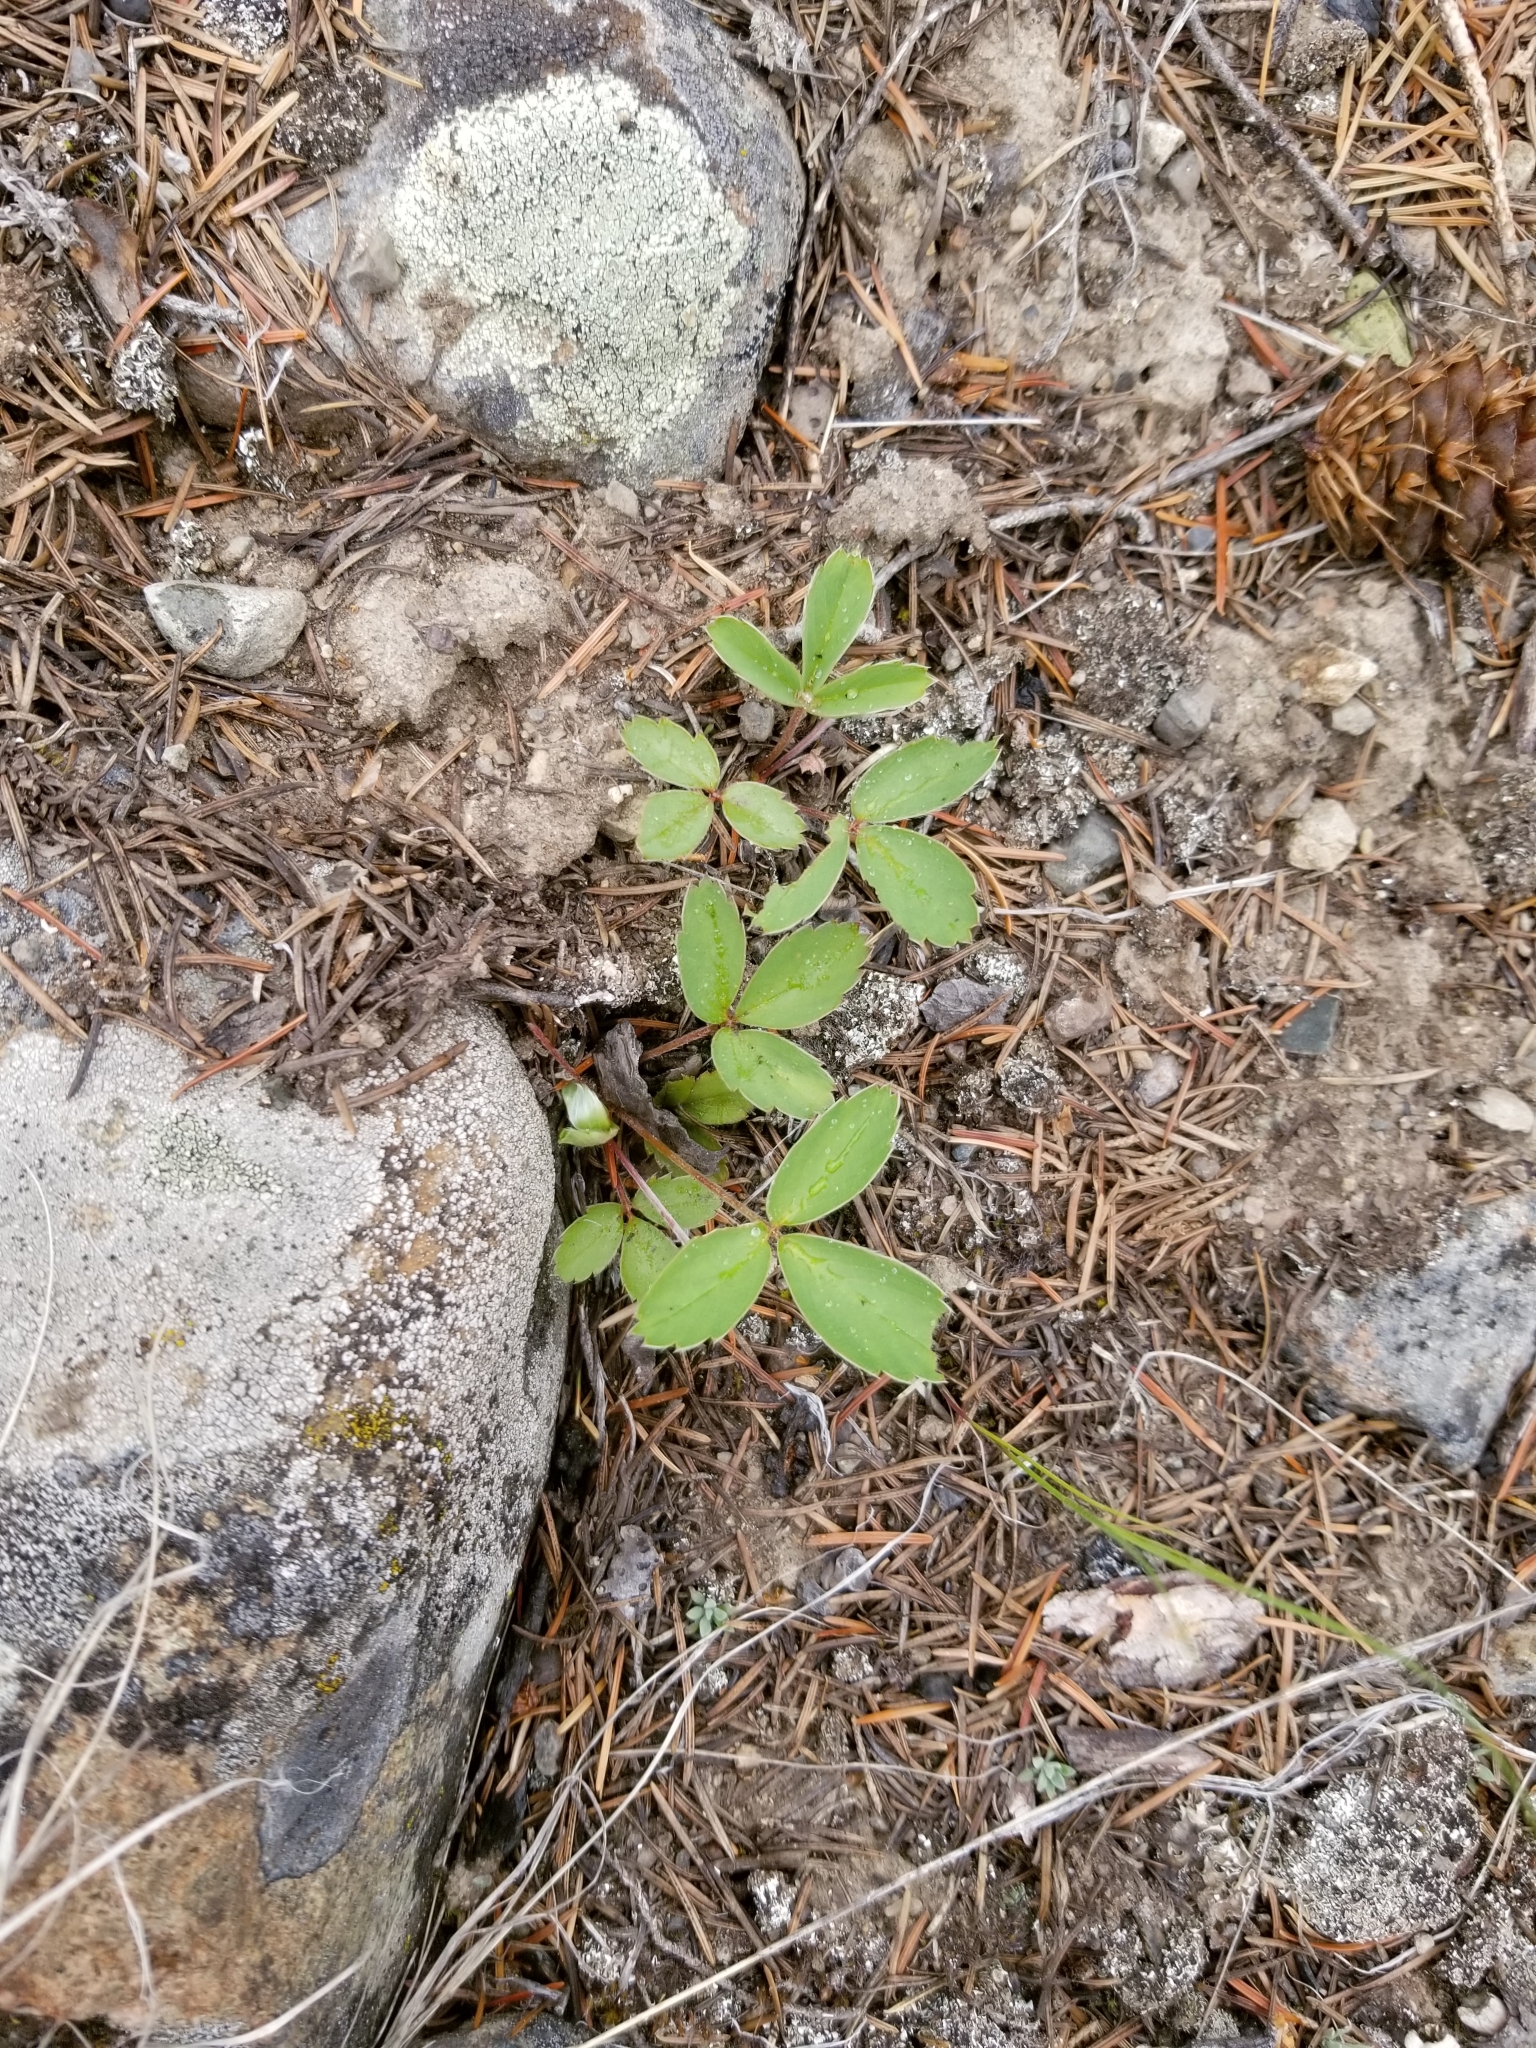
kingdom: Plantae
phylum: Tracheophyta
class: Magnoliopsida
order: Rosales
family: Rosaceae
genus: Fragaria
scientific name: Fragaria virginiana
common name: Thickleaved wild strawberry
